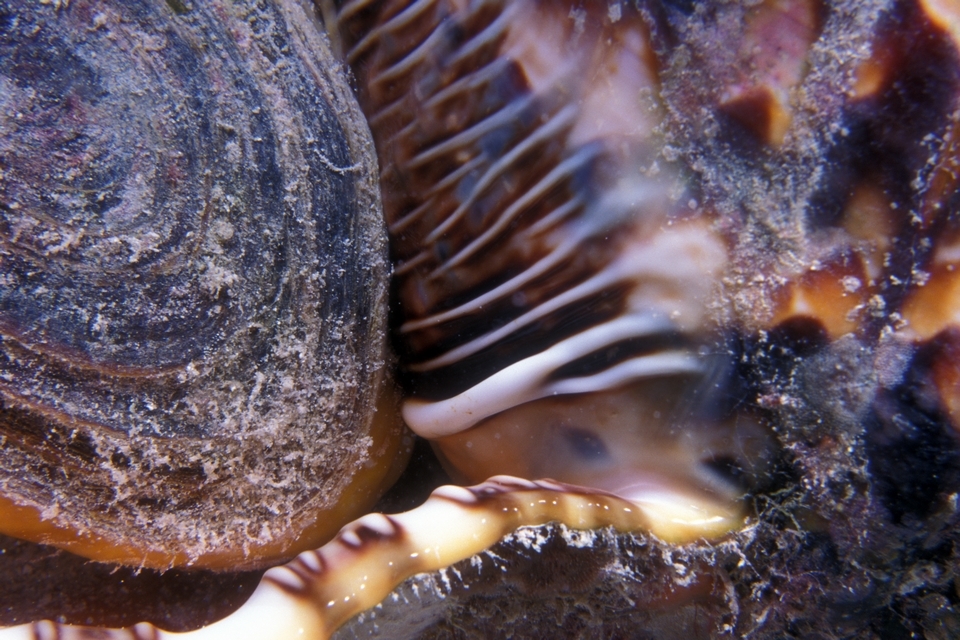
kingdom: Animalia
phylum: Mollusca
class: Gastropoda
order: Littorinimorpha
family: Charoniidae
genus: Charonia
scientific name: Charonia variegata
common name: Atlantic triton
